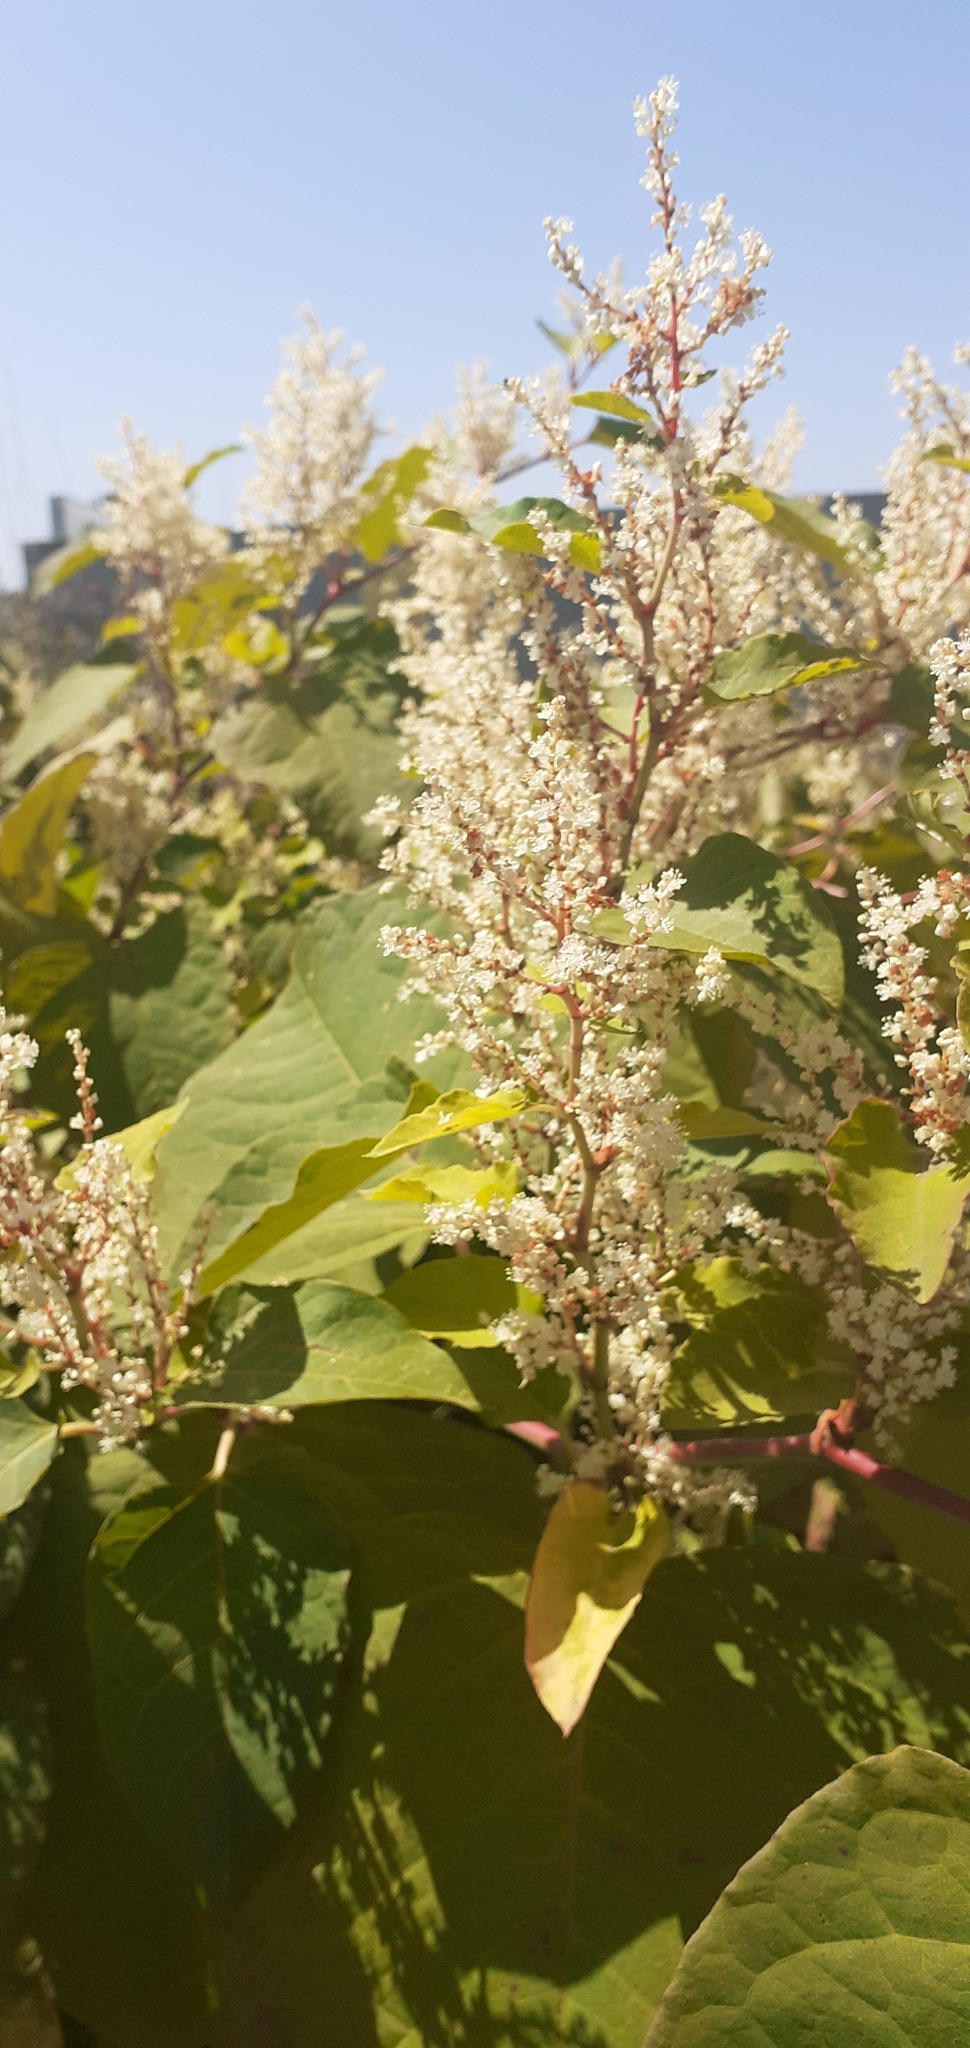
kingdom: Plantae
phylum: Tracheophyta
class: Magnoliopsida
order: Caryophyllales
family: Polygonaceae
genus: Reynoutria
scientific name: Reynoutria japonica
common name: Japanese knotweed
